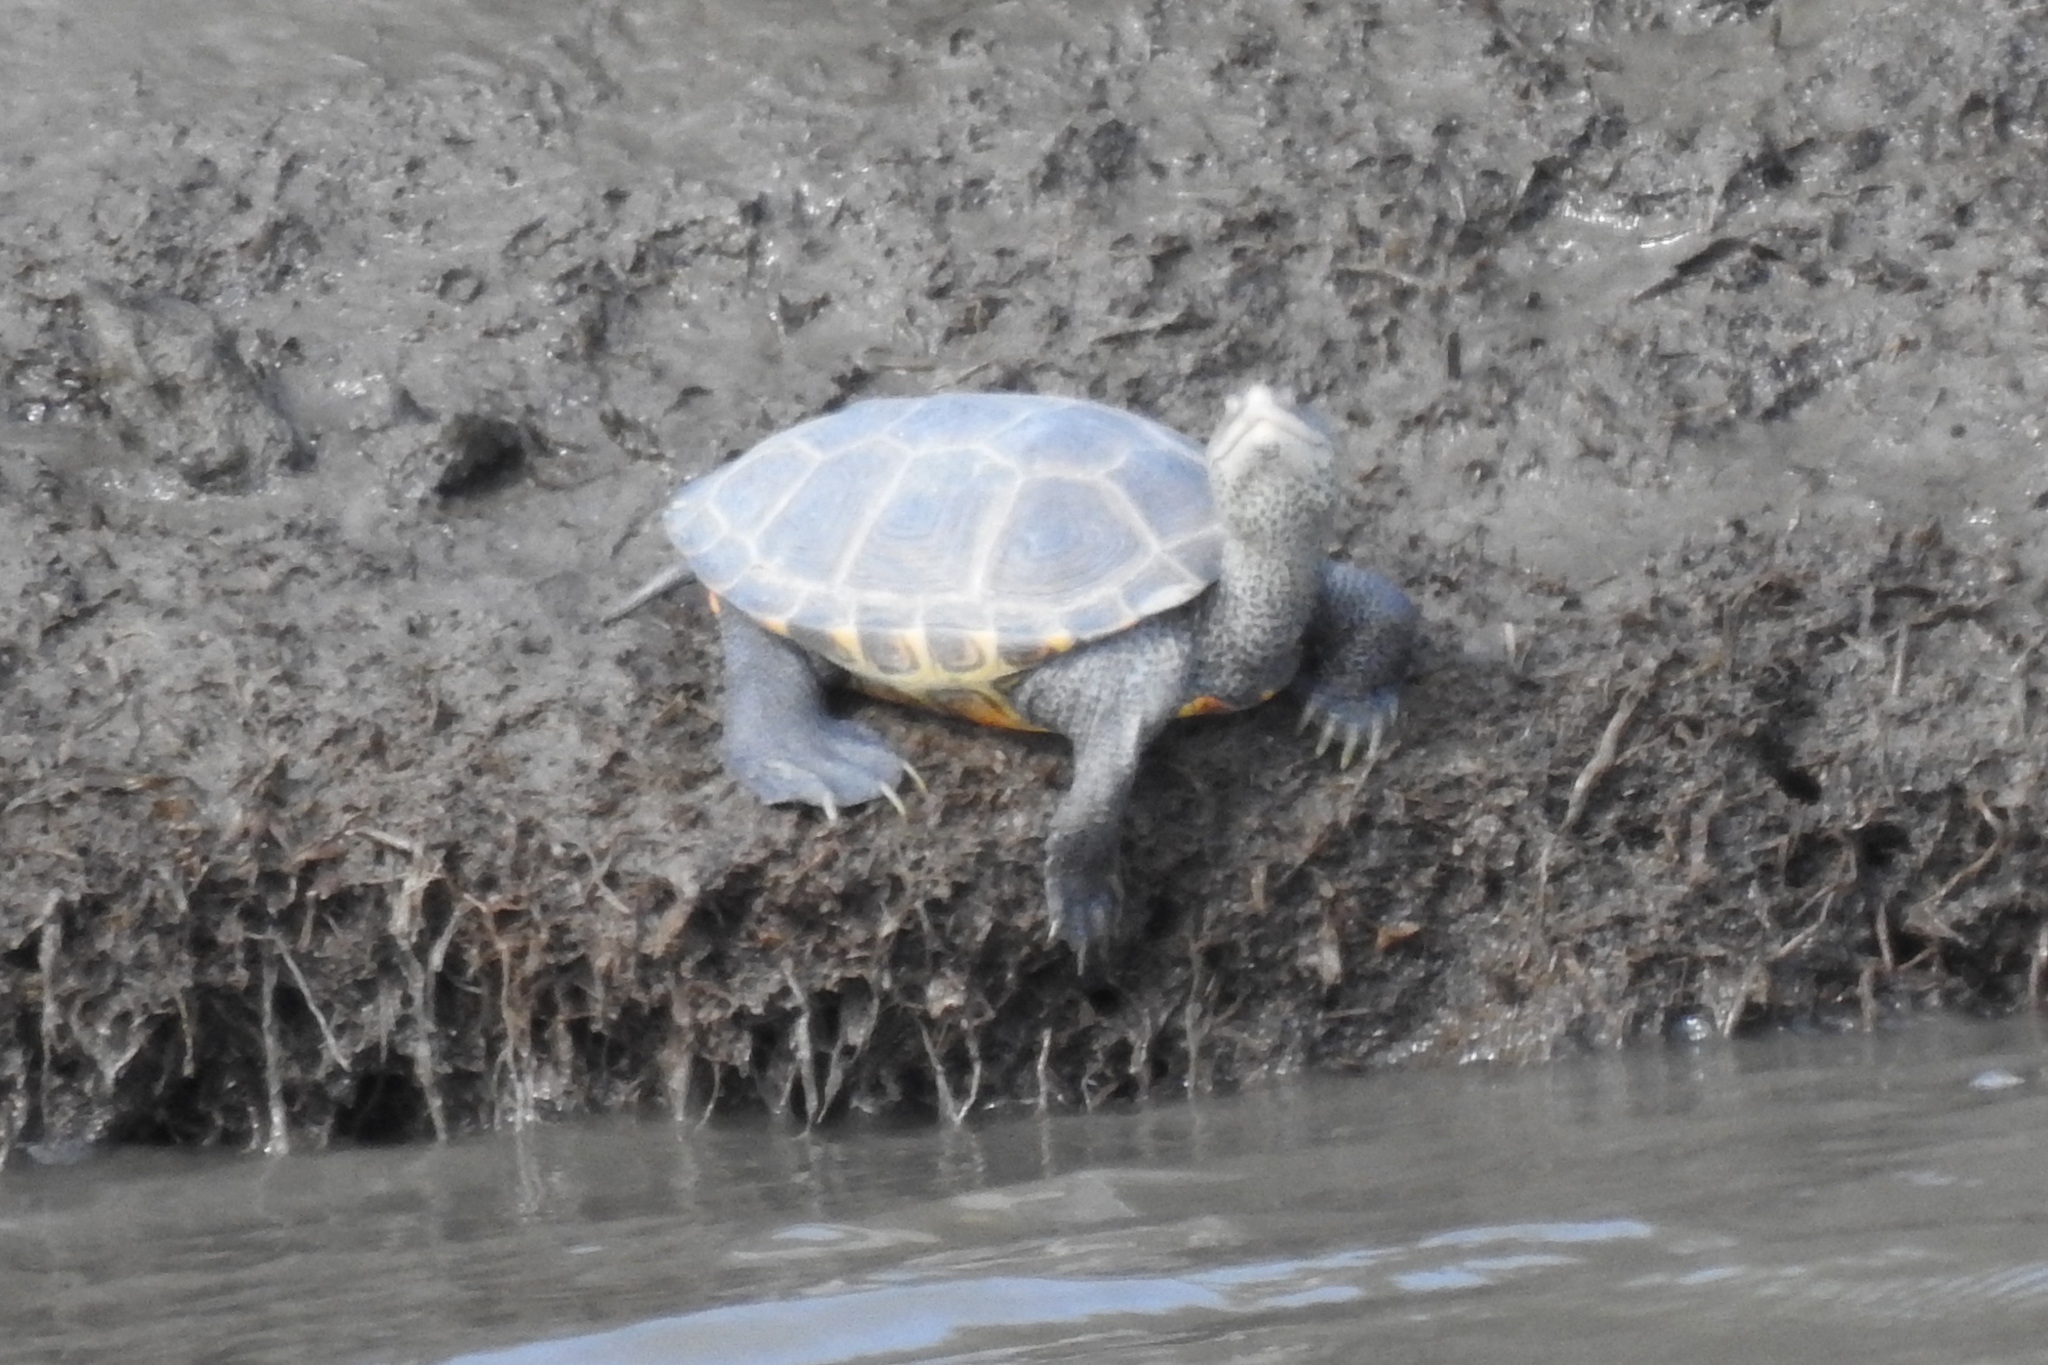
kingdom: Animalia
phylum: Chordata
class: Testudines
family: Emydidae
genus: Malaclemys
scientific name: Malaclemys terrapin
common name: Diamondback terrapin
